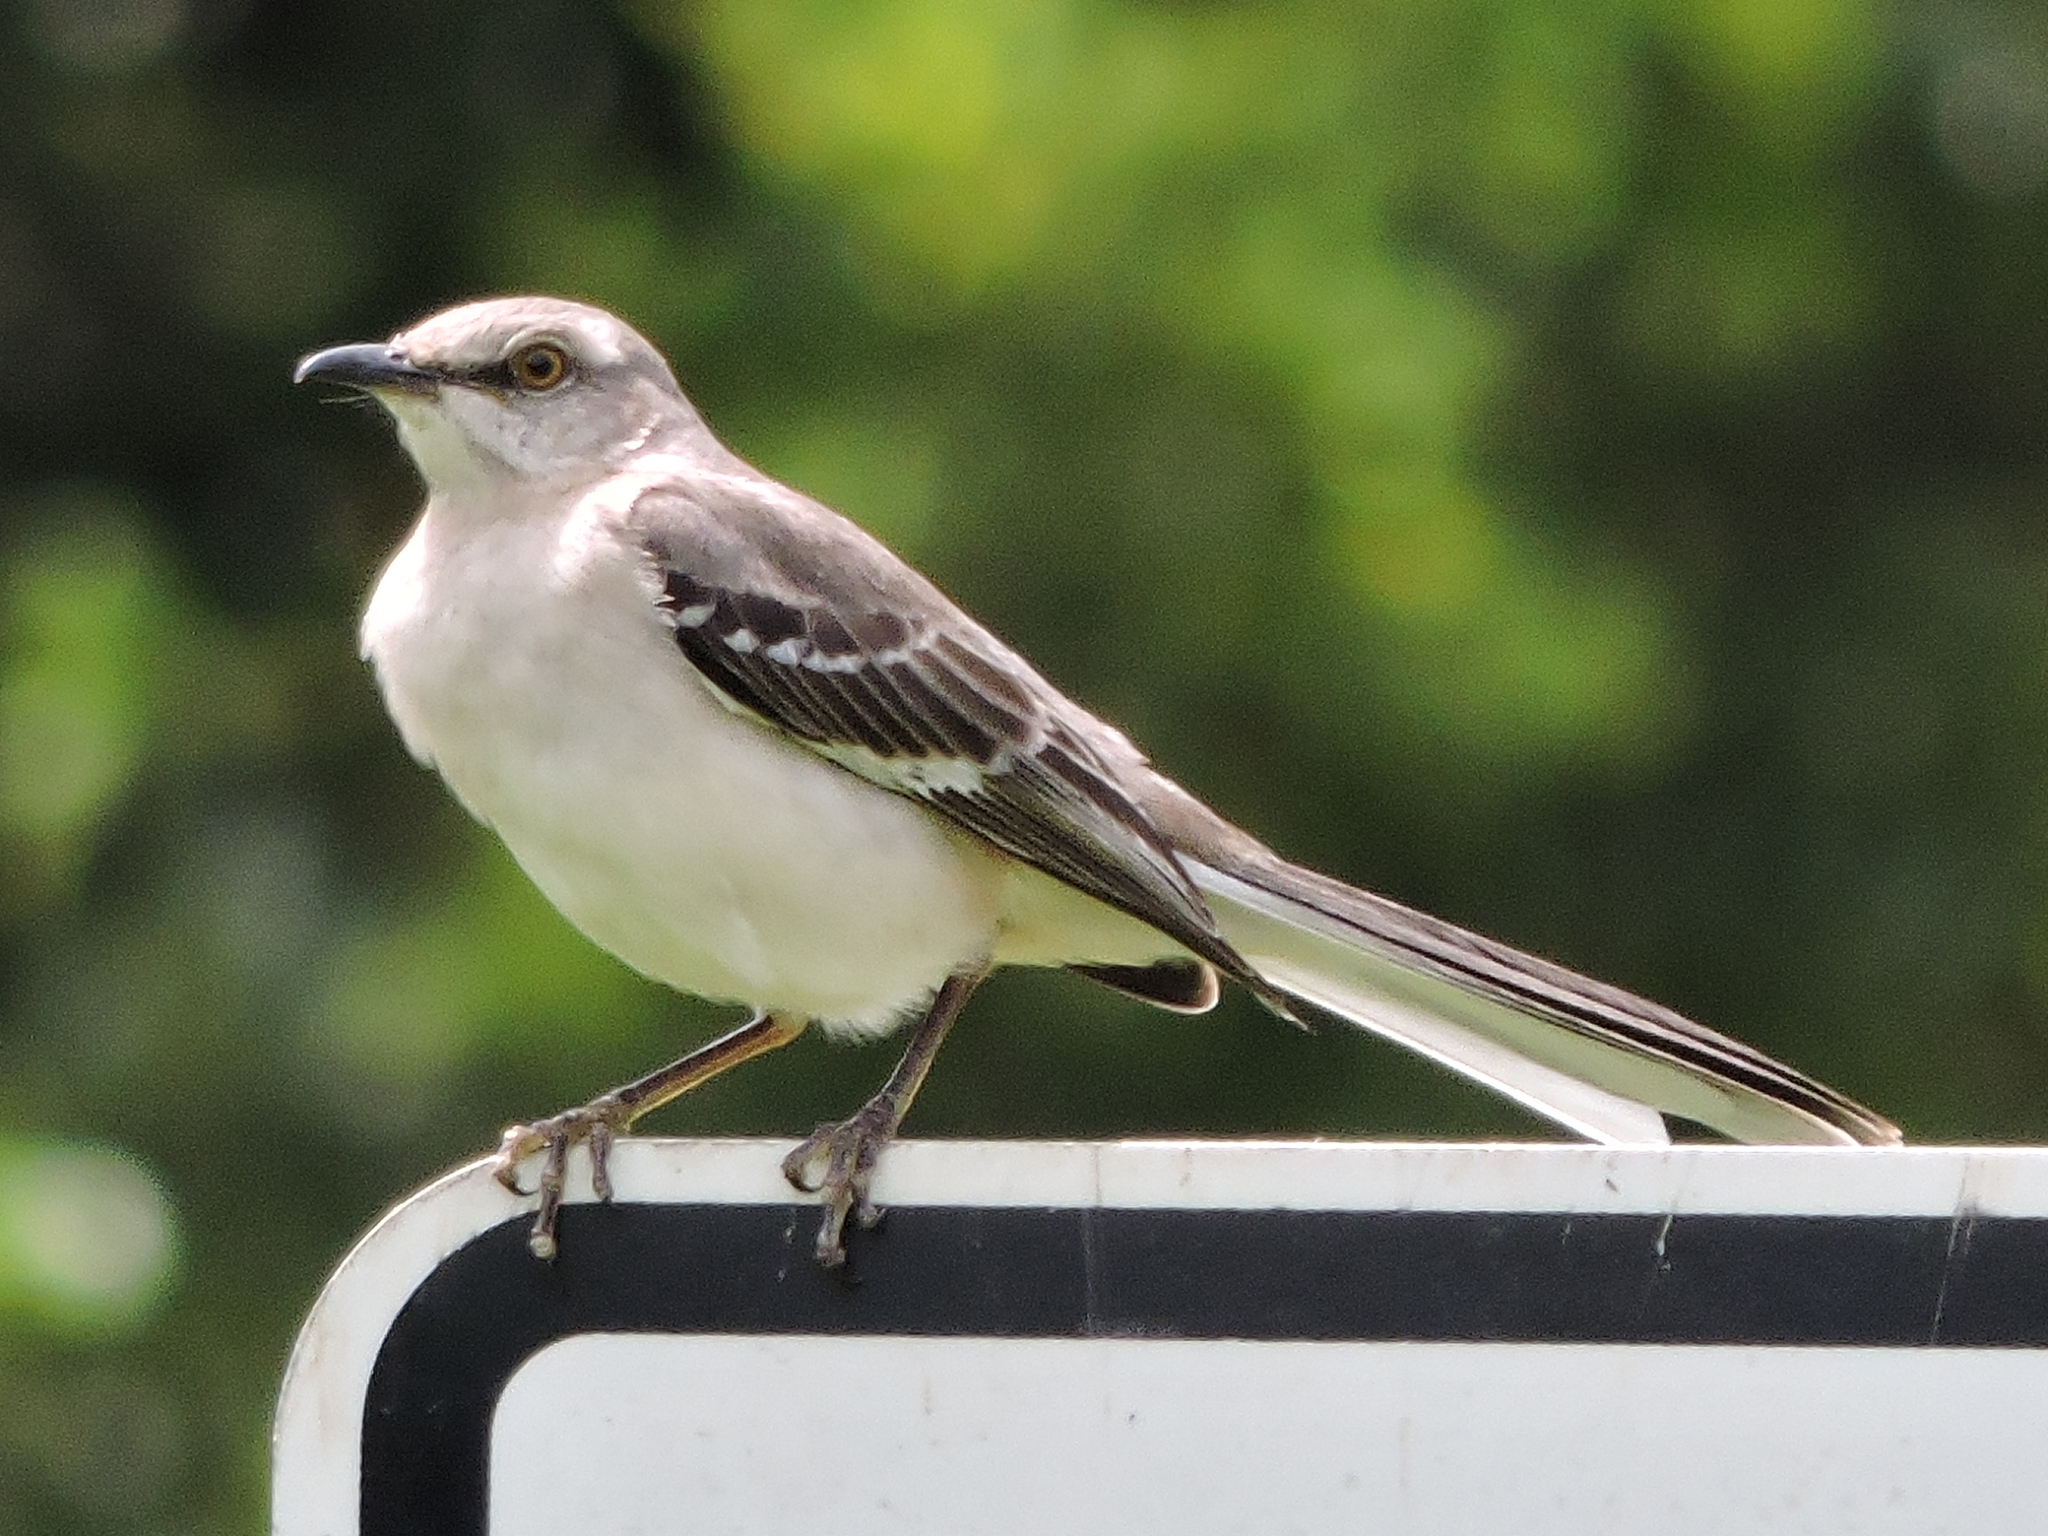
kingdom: Animalia
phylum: Chordata
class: Aves
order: Passeriformes
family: Mimidae
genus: Mimus
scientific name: Mimus polyglottos
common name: Northern mockingbird
